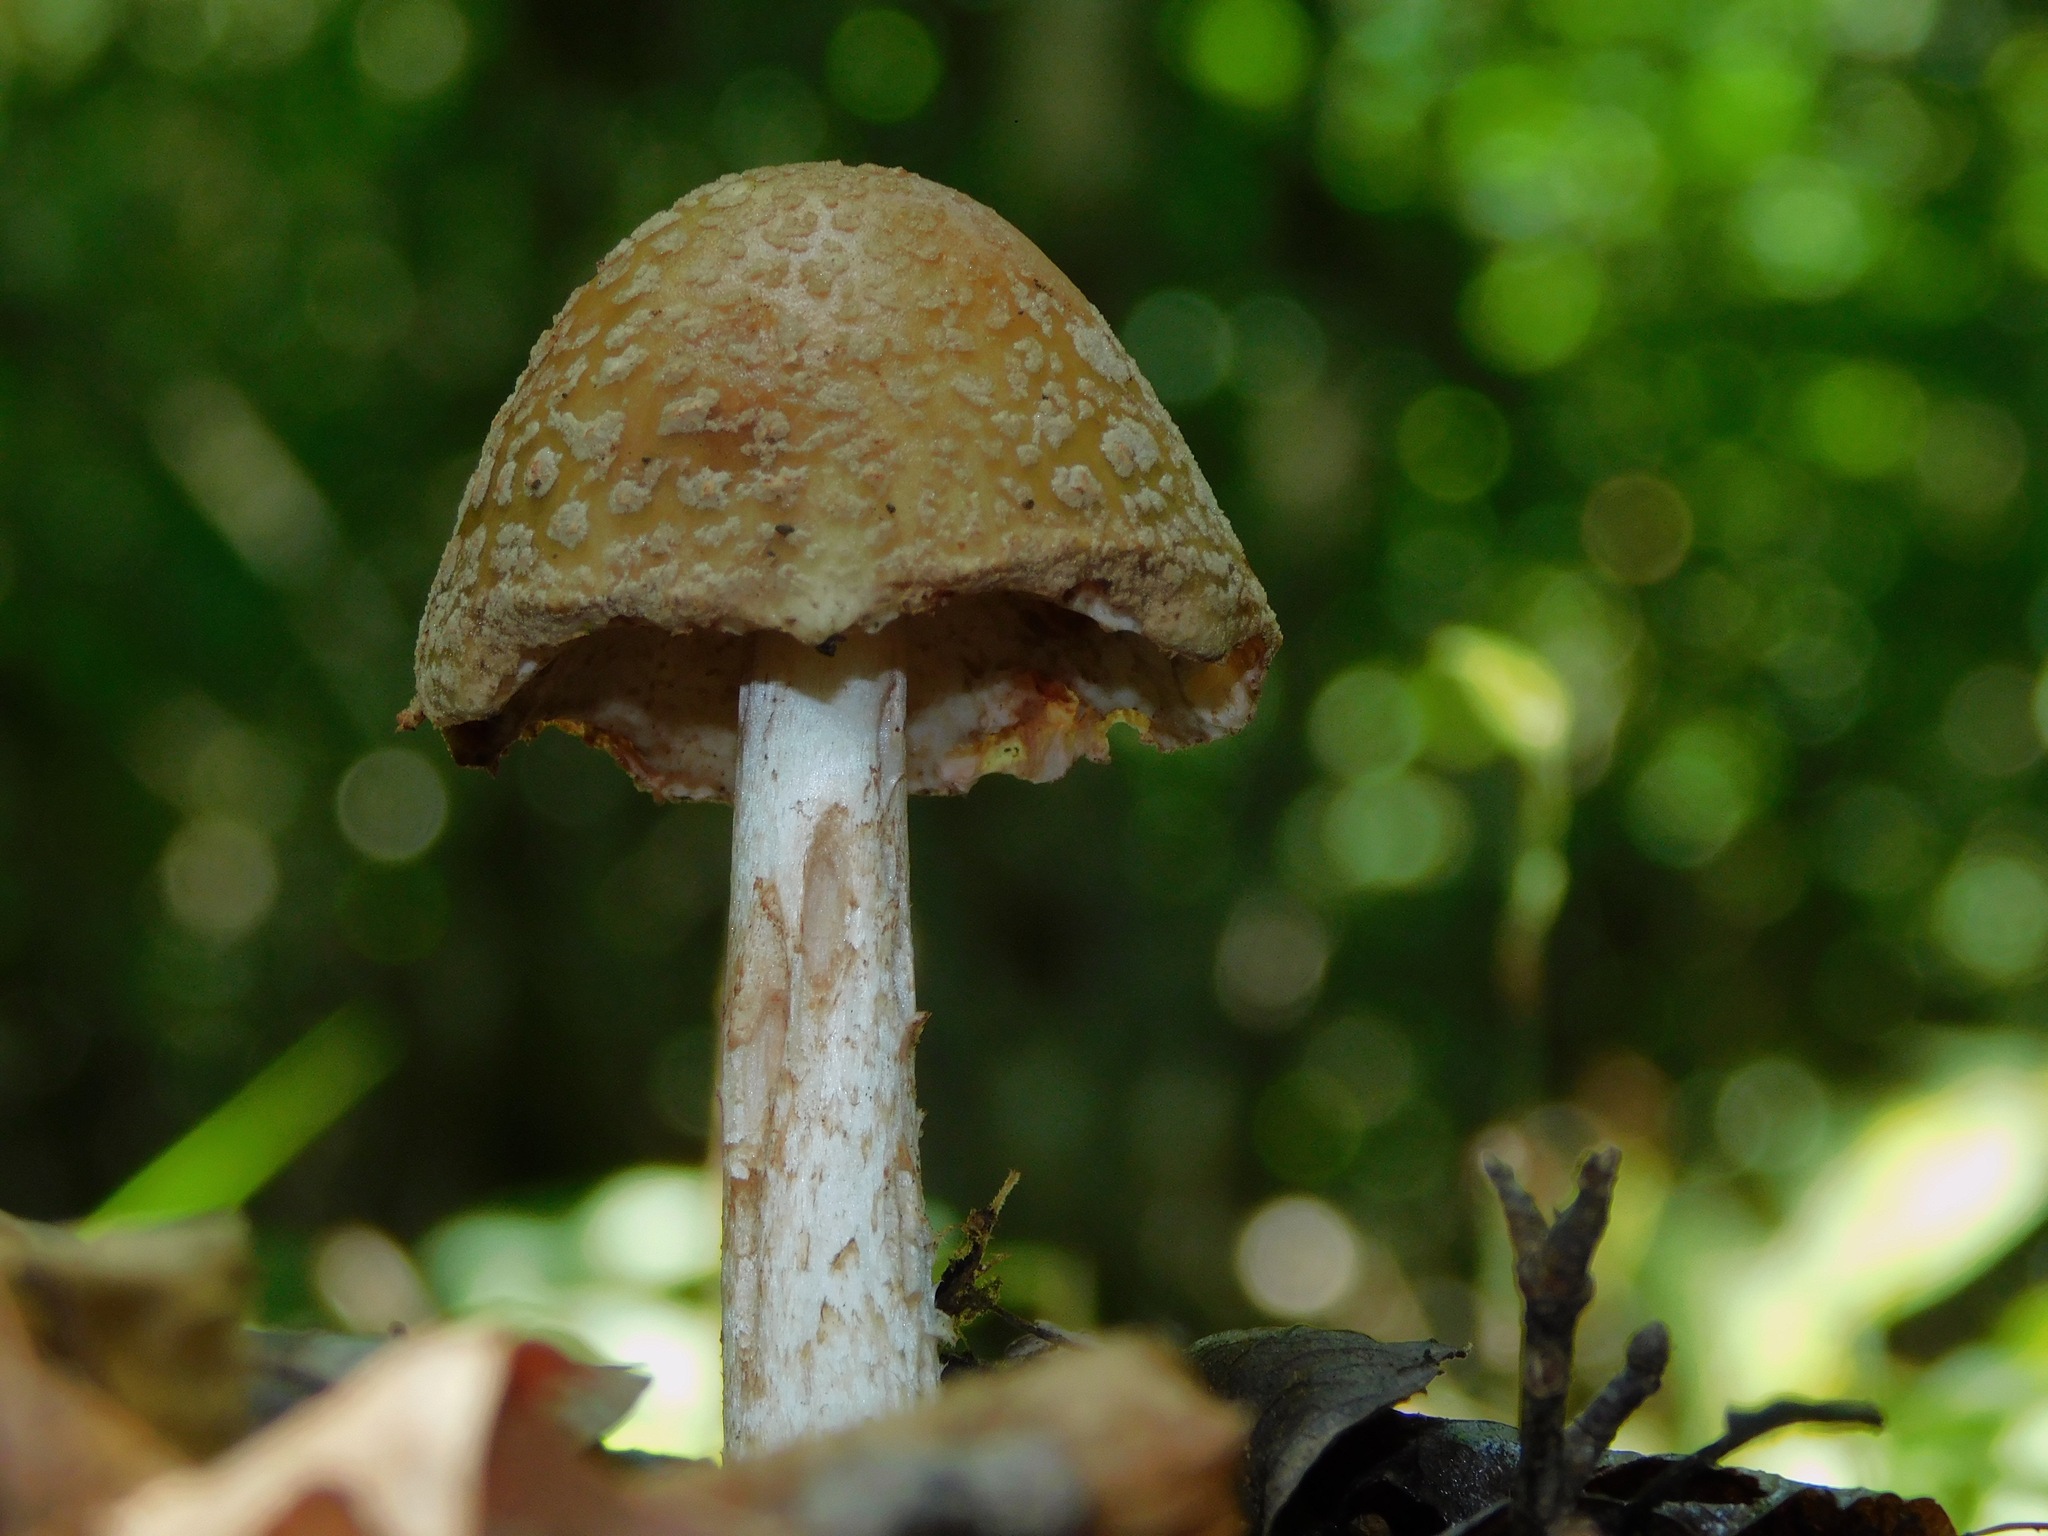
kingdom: Fungi
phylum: Basidiomycota
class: Agaricomycetes
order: Agaricales
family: Amanitaceae
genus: Amanita
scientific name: Amanita rubescens
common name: Blusher
